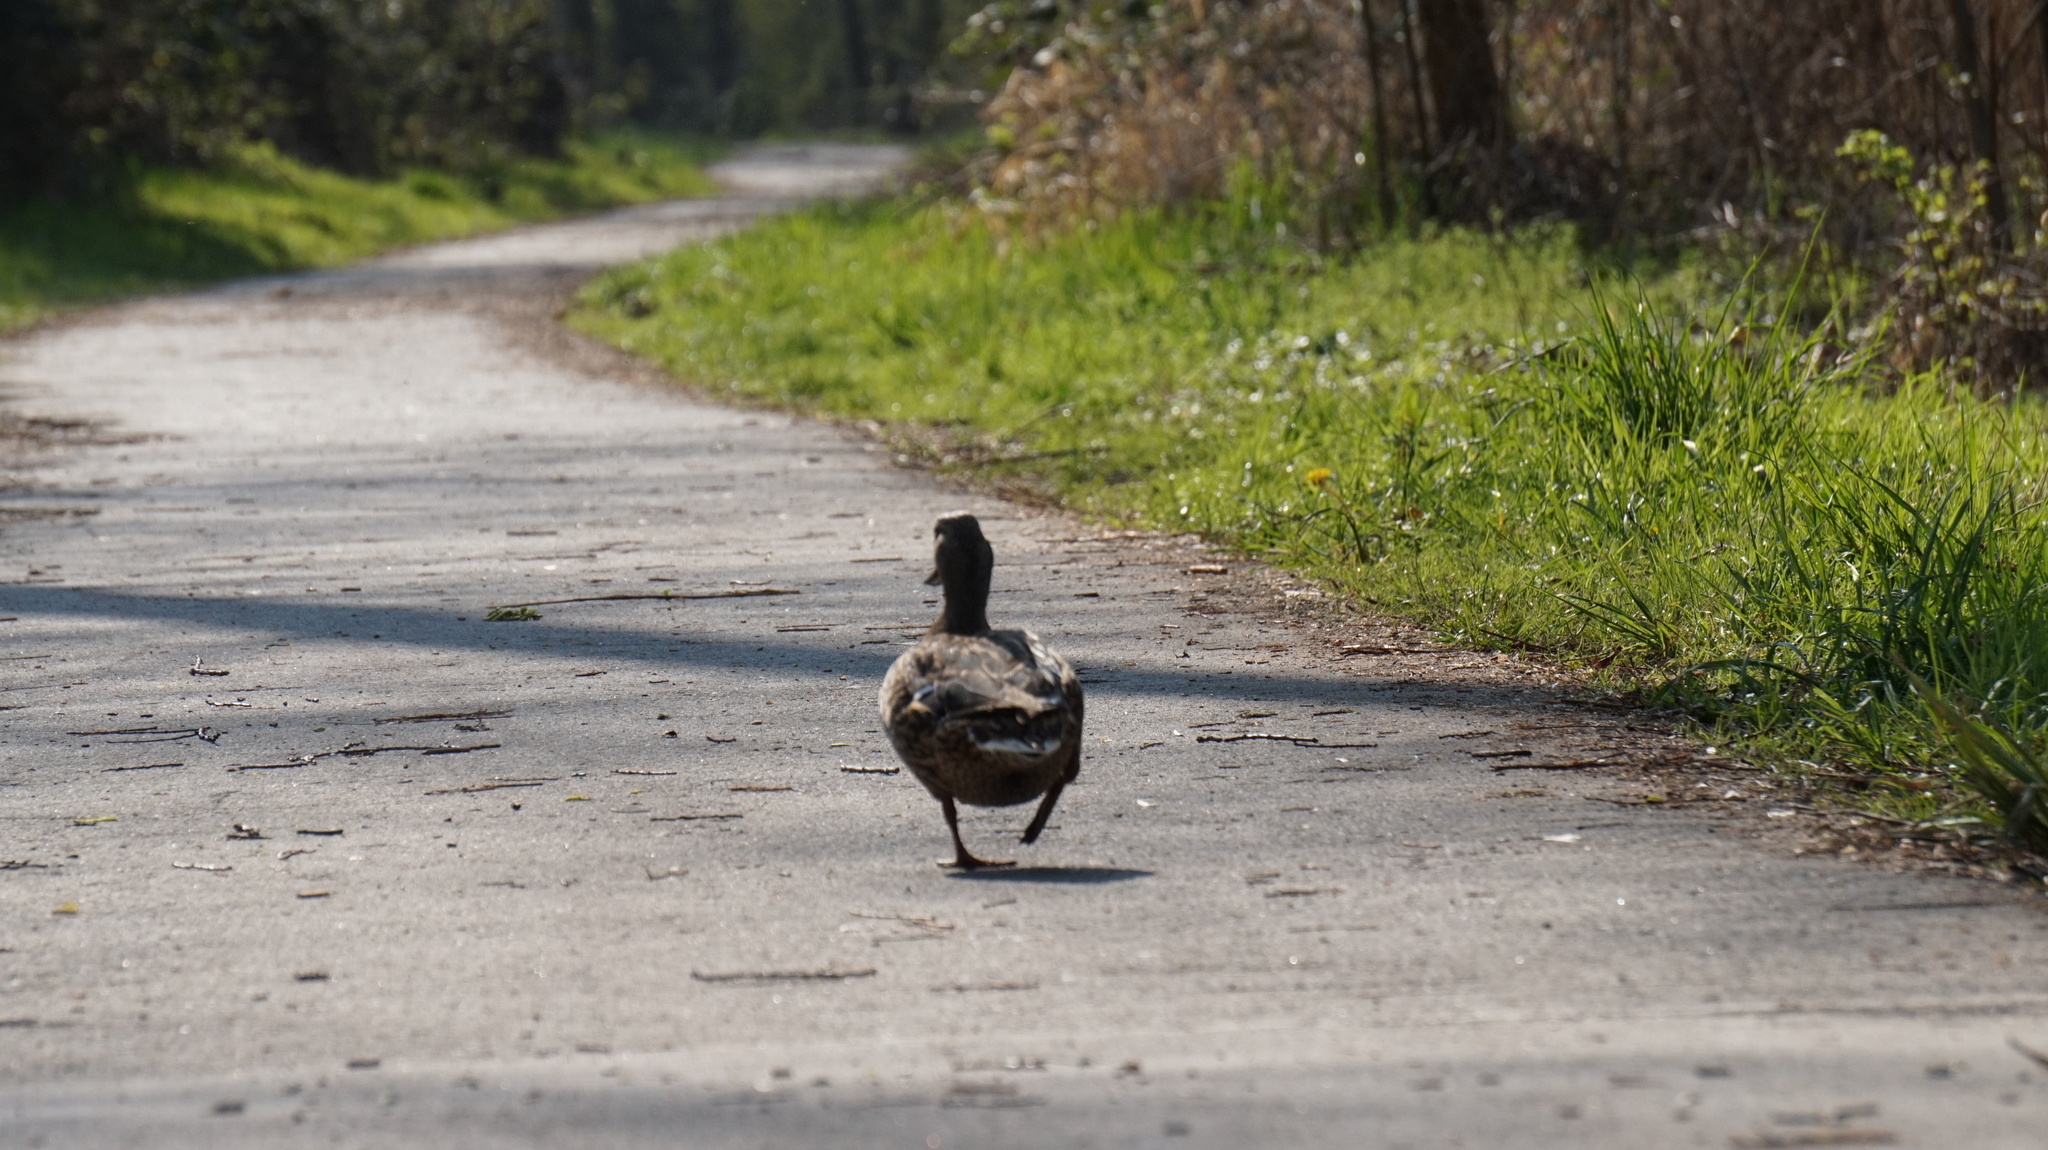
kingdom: Animalia
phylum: Chordata
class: Aves
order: Anseriformes
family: Anatidae
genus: Anas
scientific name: Anas platyrhynchos
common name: Mallard
